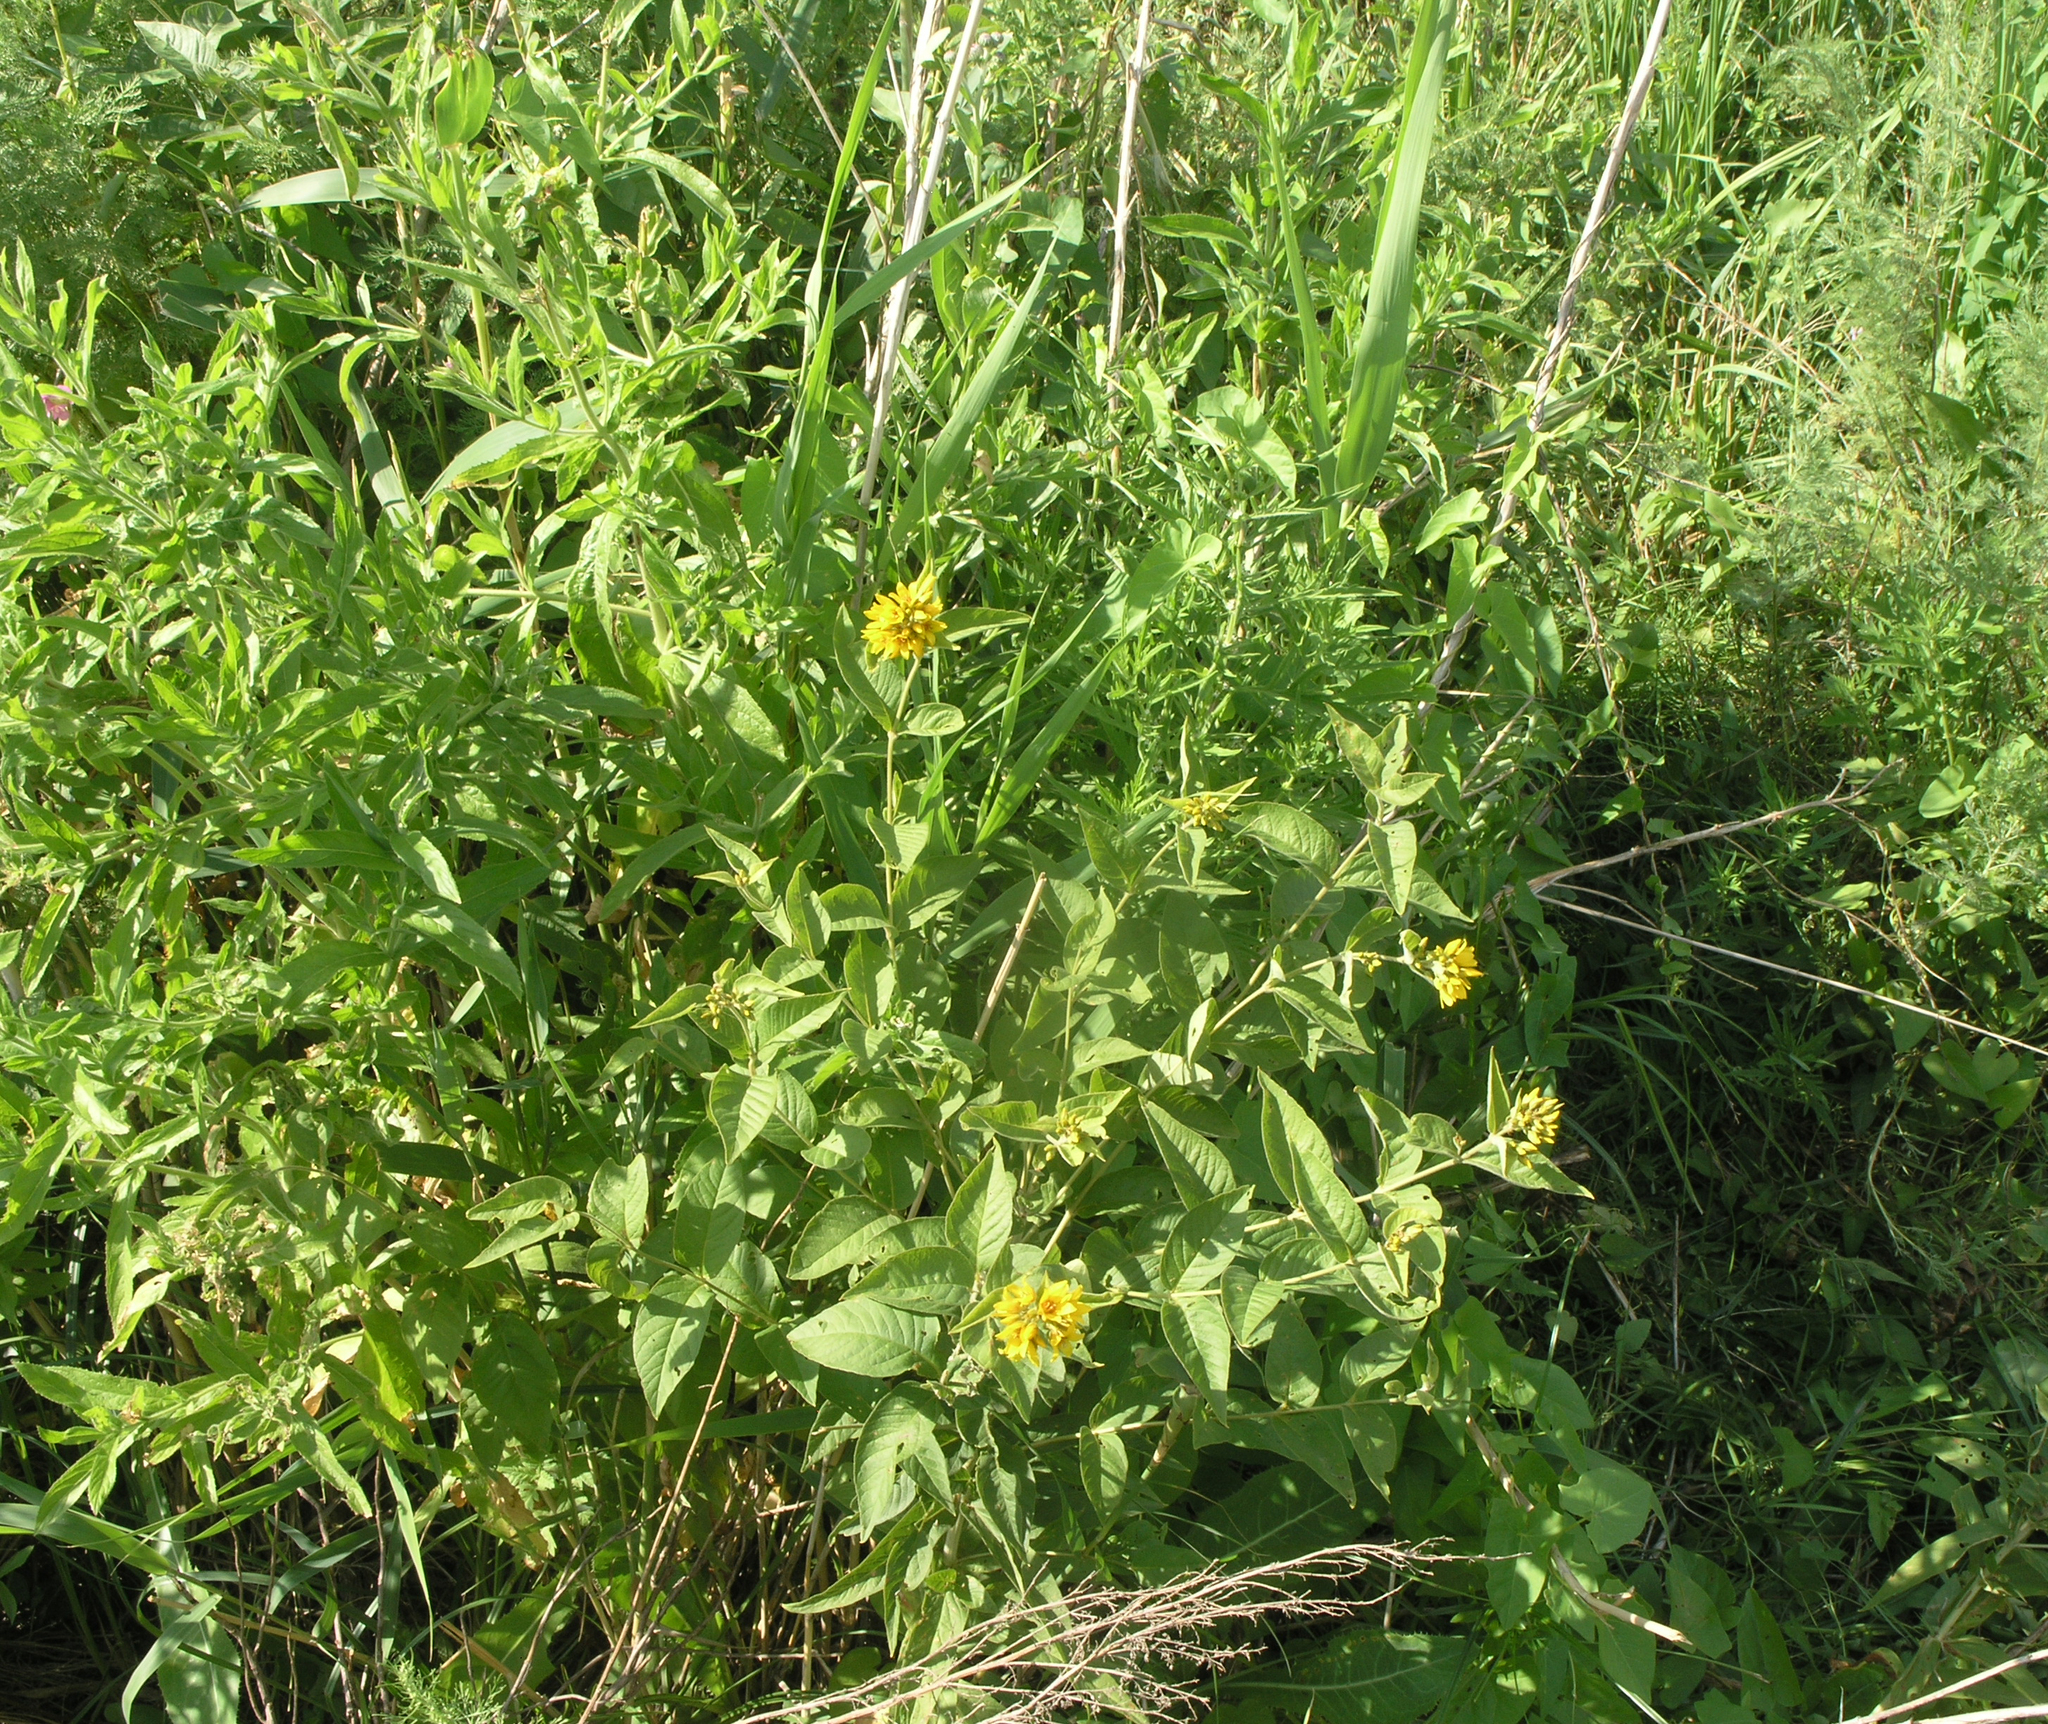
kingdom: Plantae
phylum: Tracheophyta
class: Magnoliopsida
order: Ericales
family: Primulaceae
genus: Lysimachia
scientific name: Lysimachia vulgaris
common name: Yellow loosestrife
